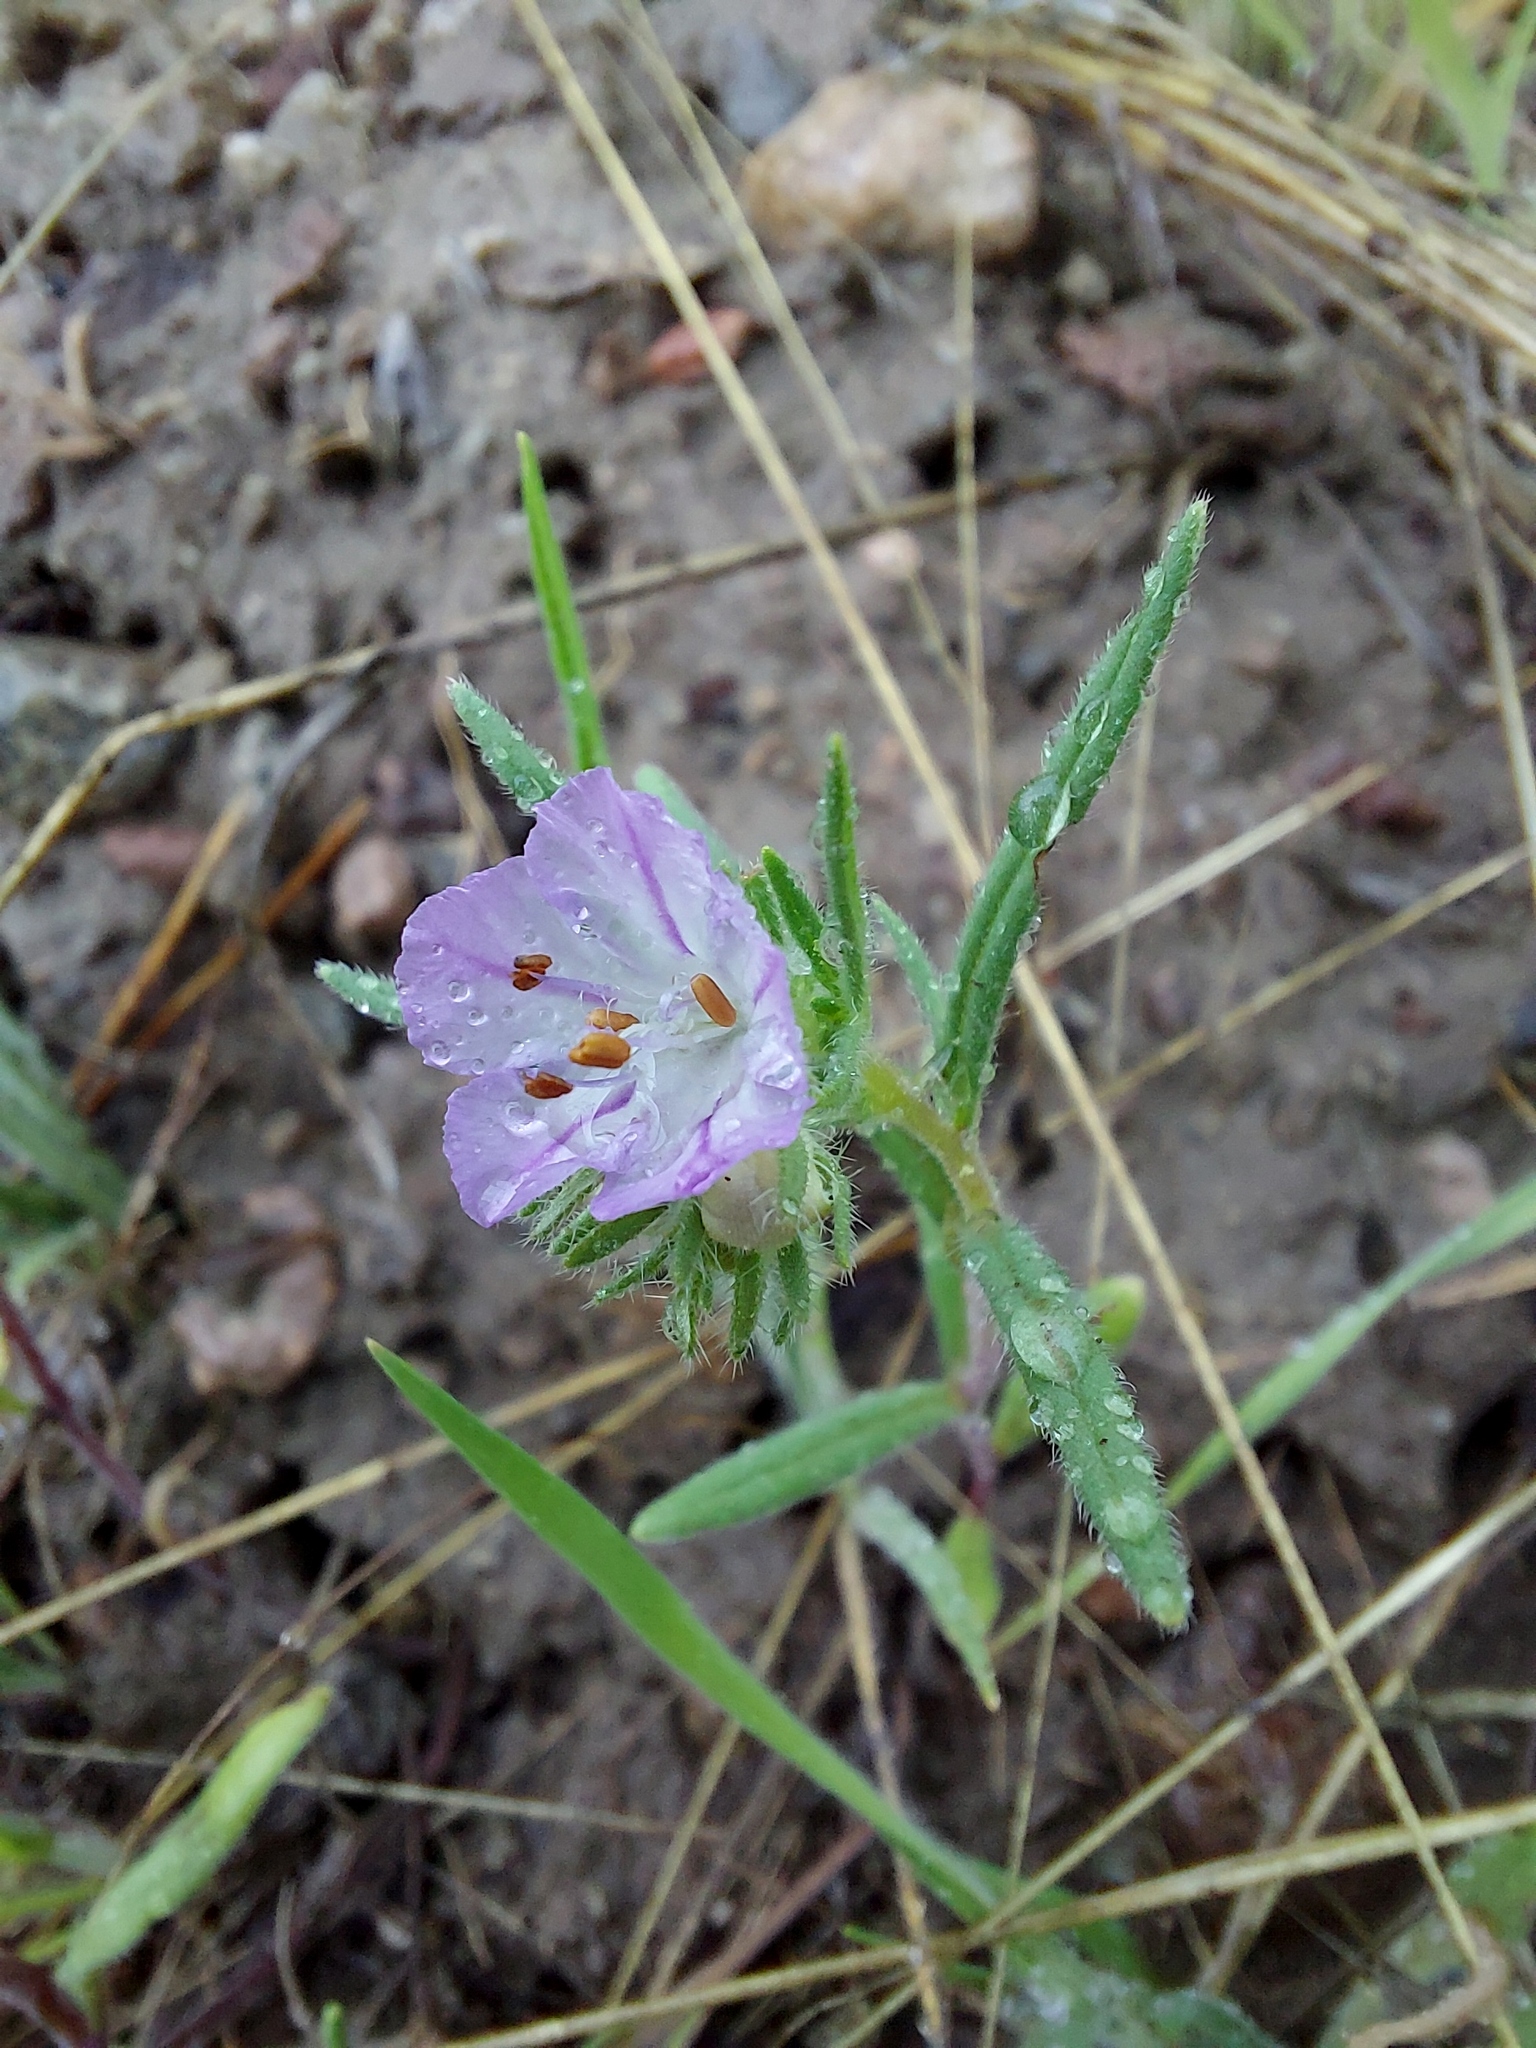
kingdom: Plantae
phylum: Tracheophyta
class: Magnoliopsida
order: Boraginales
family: Hydrophyllaceae
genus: Phacelia
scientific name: Phacelia linearis
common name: Linear-leaved phacelia
